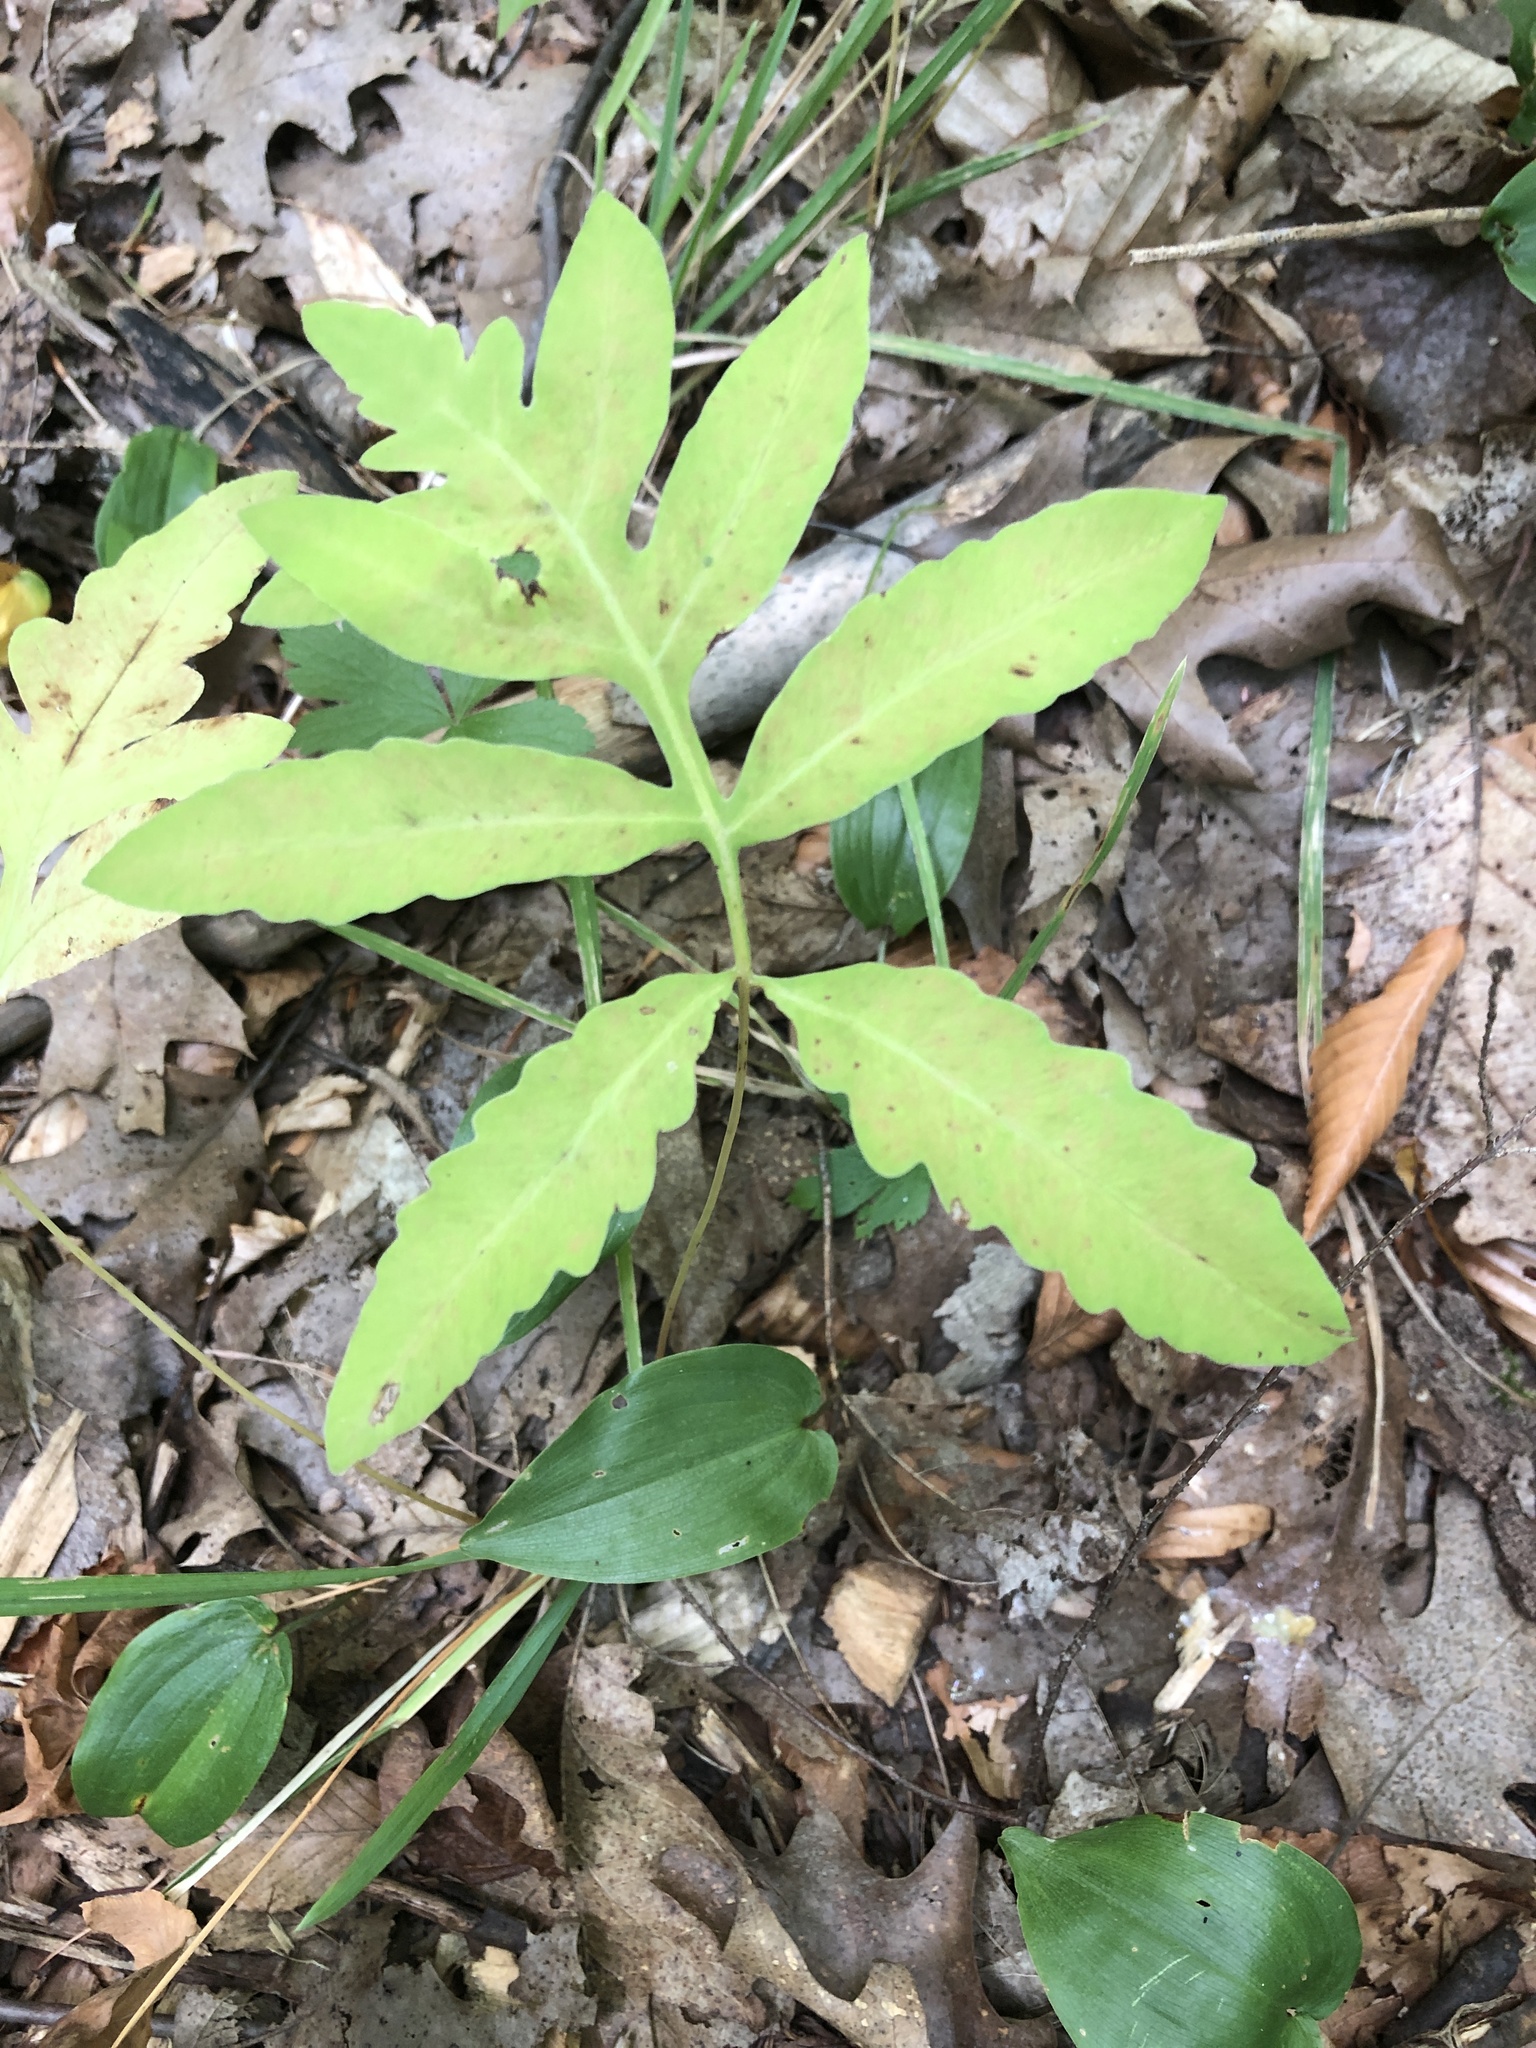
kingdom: Plantae
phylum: Tracheophyta
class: Polypodiopsida
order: Polypodiales
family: Onocleaceae
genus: Onoclea
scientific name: Onoclea sensibilis
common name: Sensitive fern
